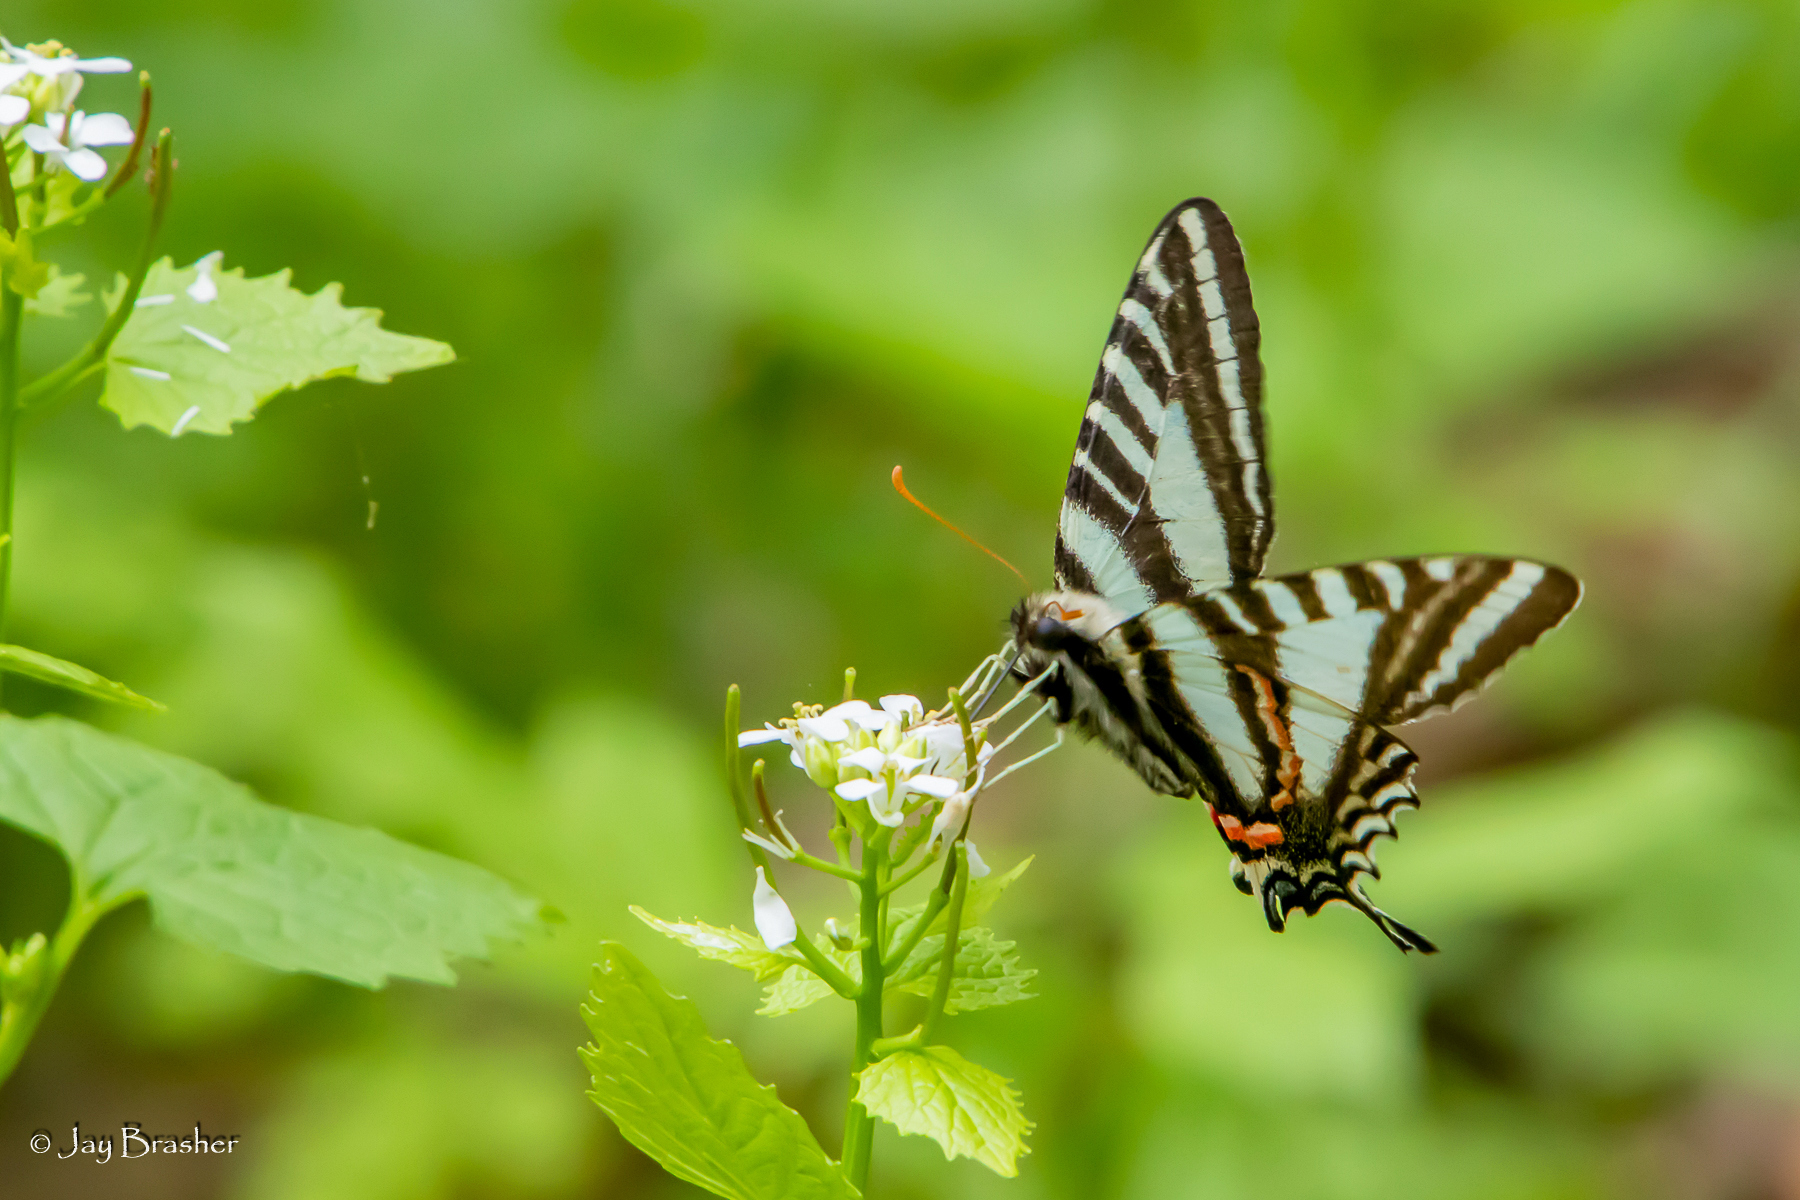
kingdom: Animalia
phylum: Arthropoda
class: Insecta
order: Lepidoptera
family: Papilionidae
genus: Protographium
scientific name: Protographium marcellus
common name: Zebra swallowtail
